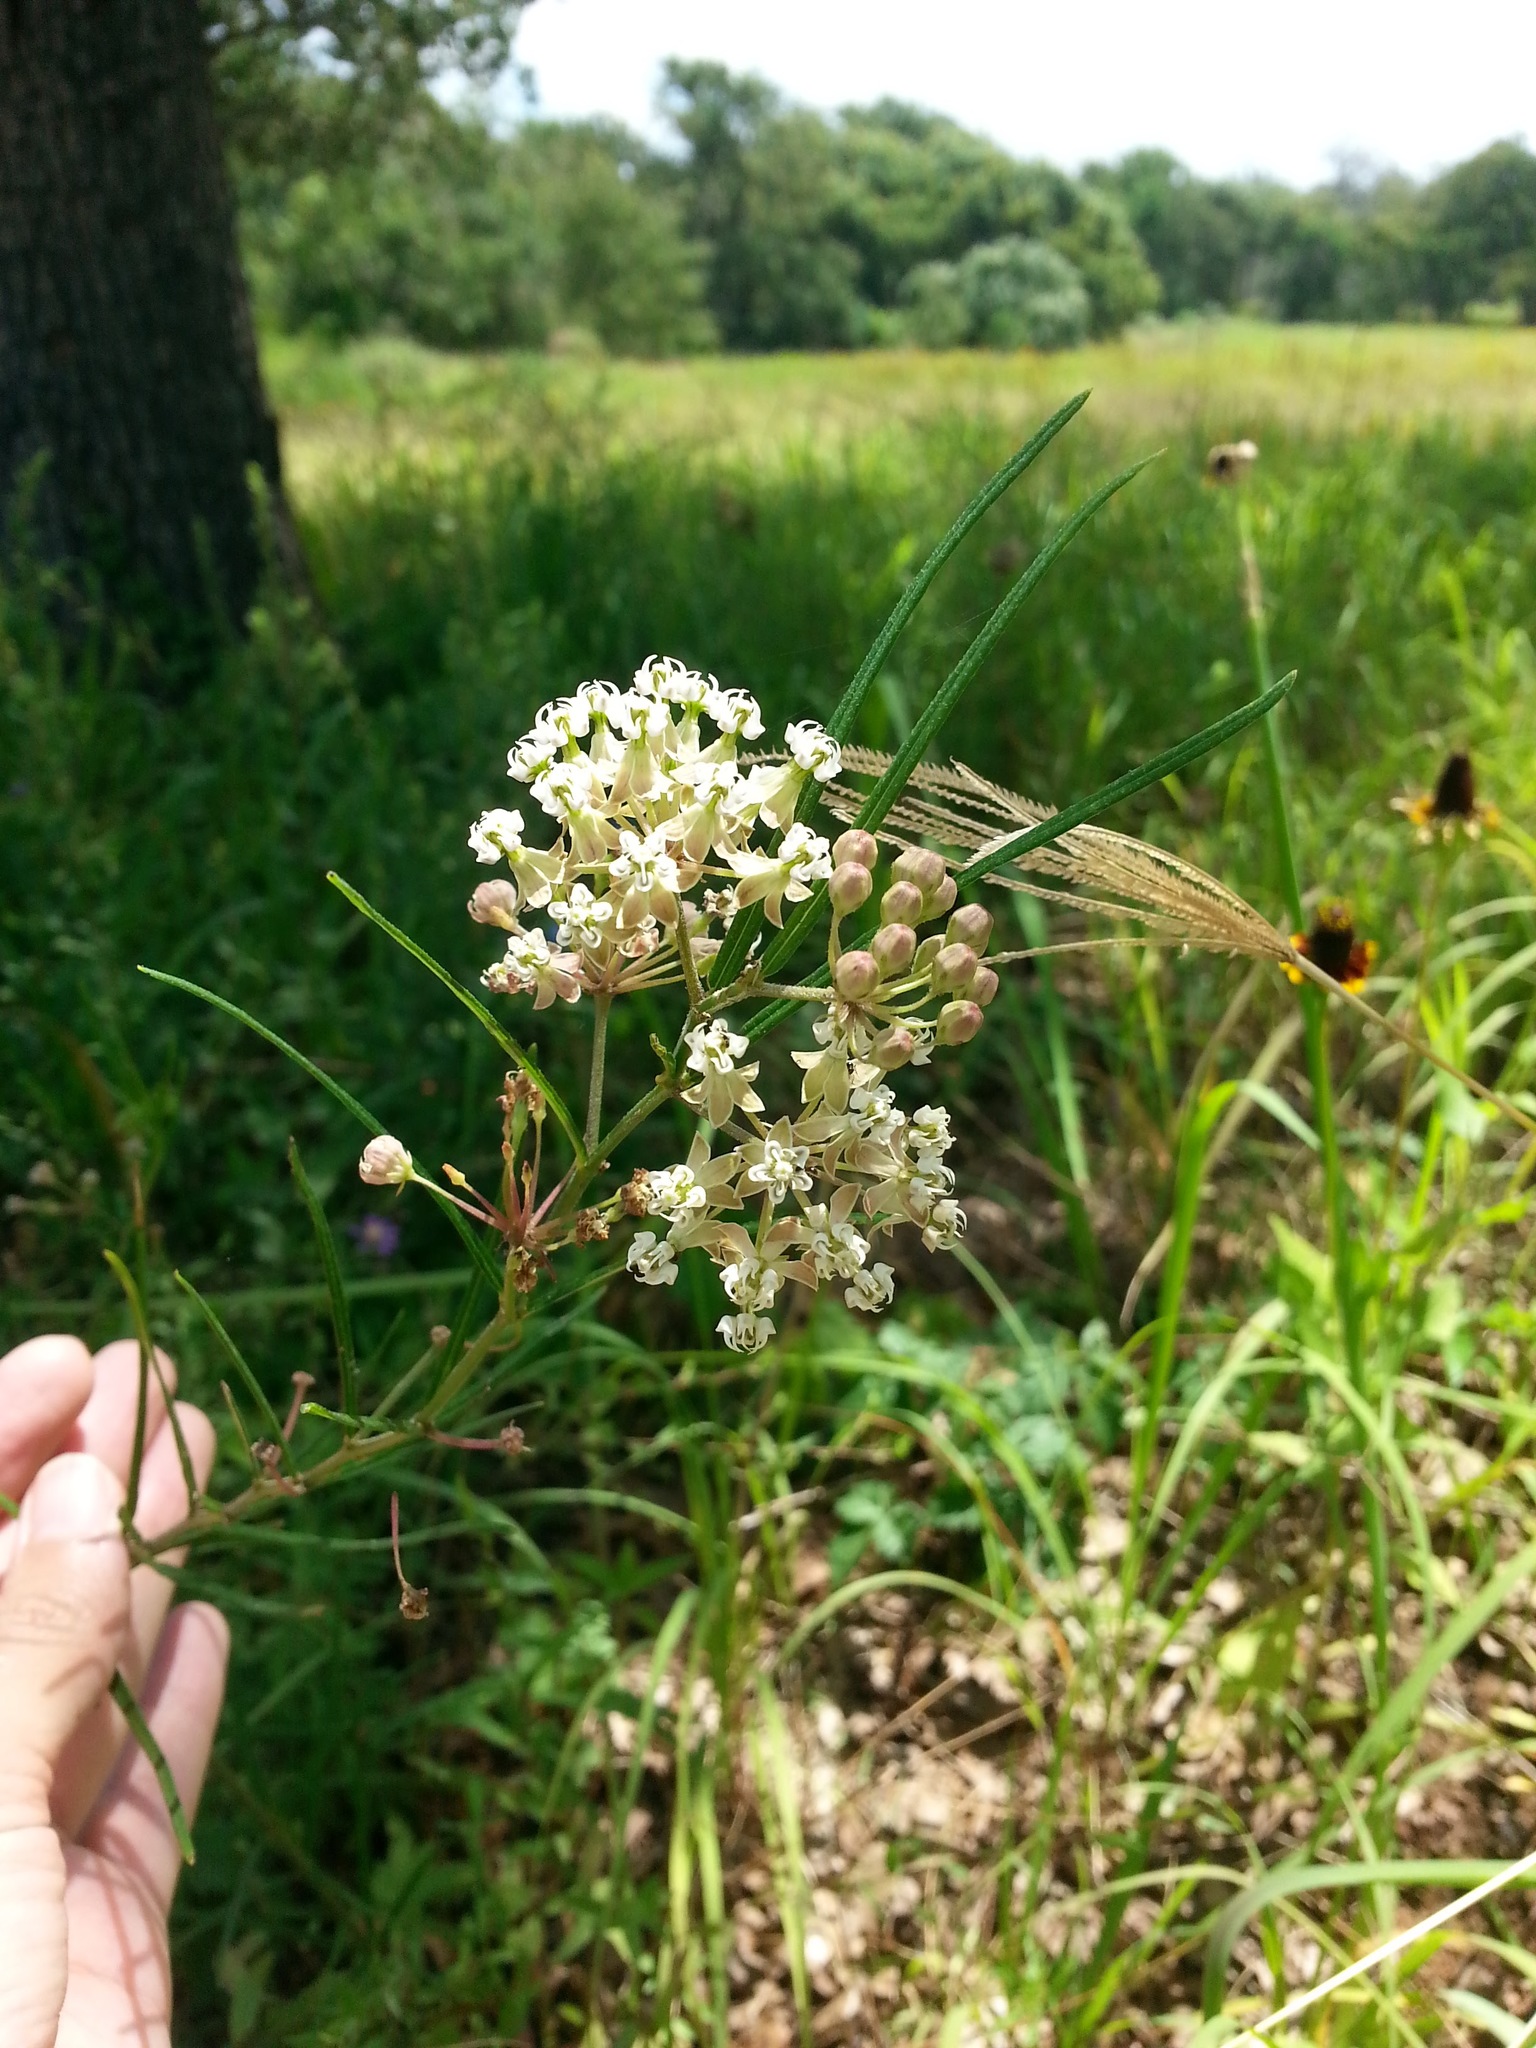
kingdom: Plantae
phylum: Tracheophyta
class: Magnoliopsida
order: Gentianales
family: Apocynaceae
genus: Asclepias
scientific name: Asclepias verticillata
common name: Eastern whorled milkweed
